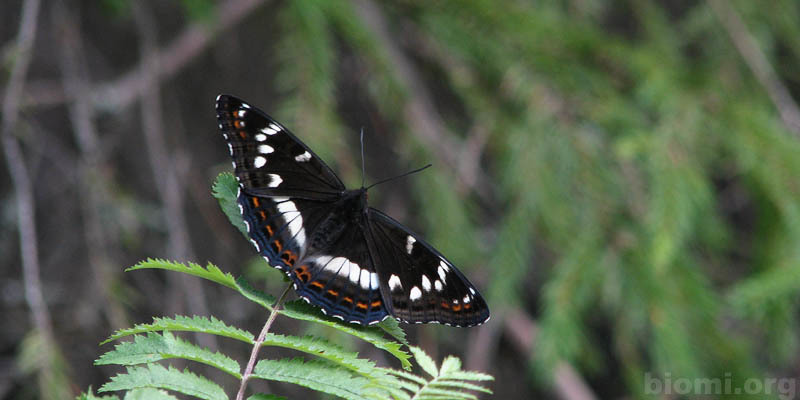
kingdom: Animalia
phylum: Arthropoda
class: Insecta
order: Lepidoptera
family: Nymphalidae
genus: Limenitis
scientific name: Limenitis populi
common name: Poplar admiral
